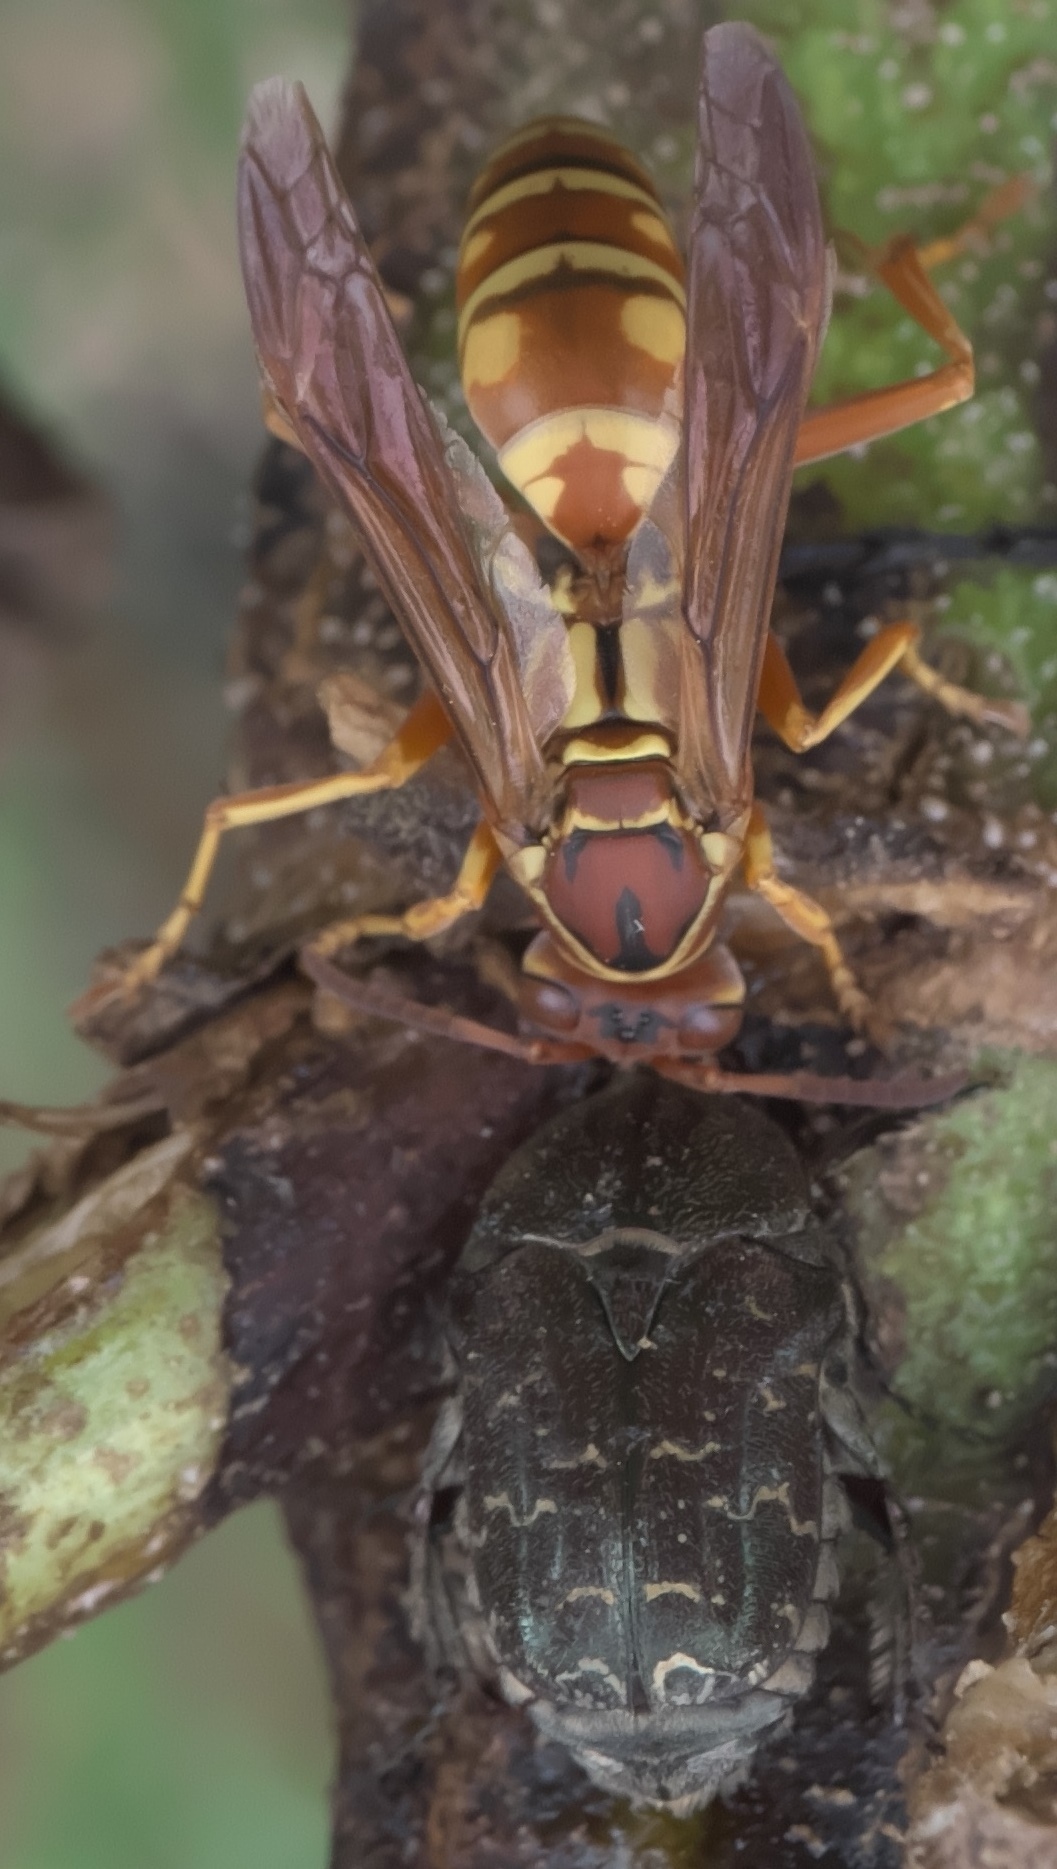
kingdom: Animalia
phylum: Arthropoda
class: Insecta
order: Coleoptera
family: Scarabaeidae
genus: Euphoria
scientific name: Euphoria sepulcralis
